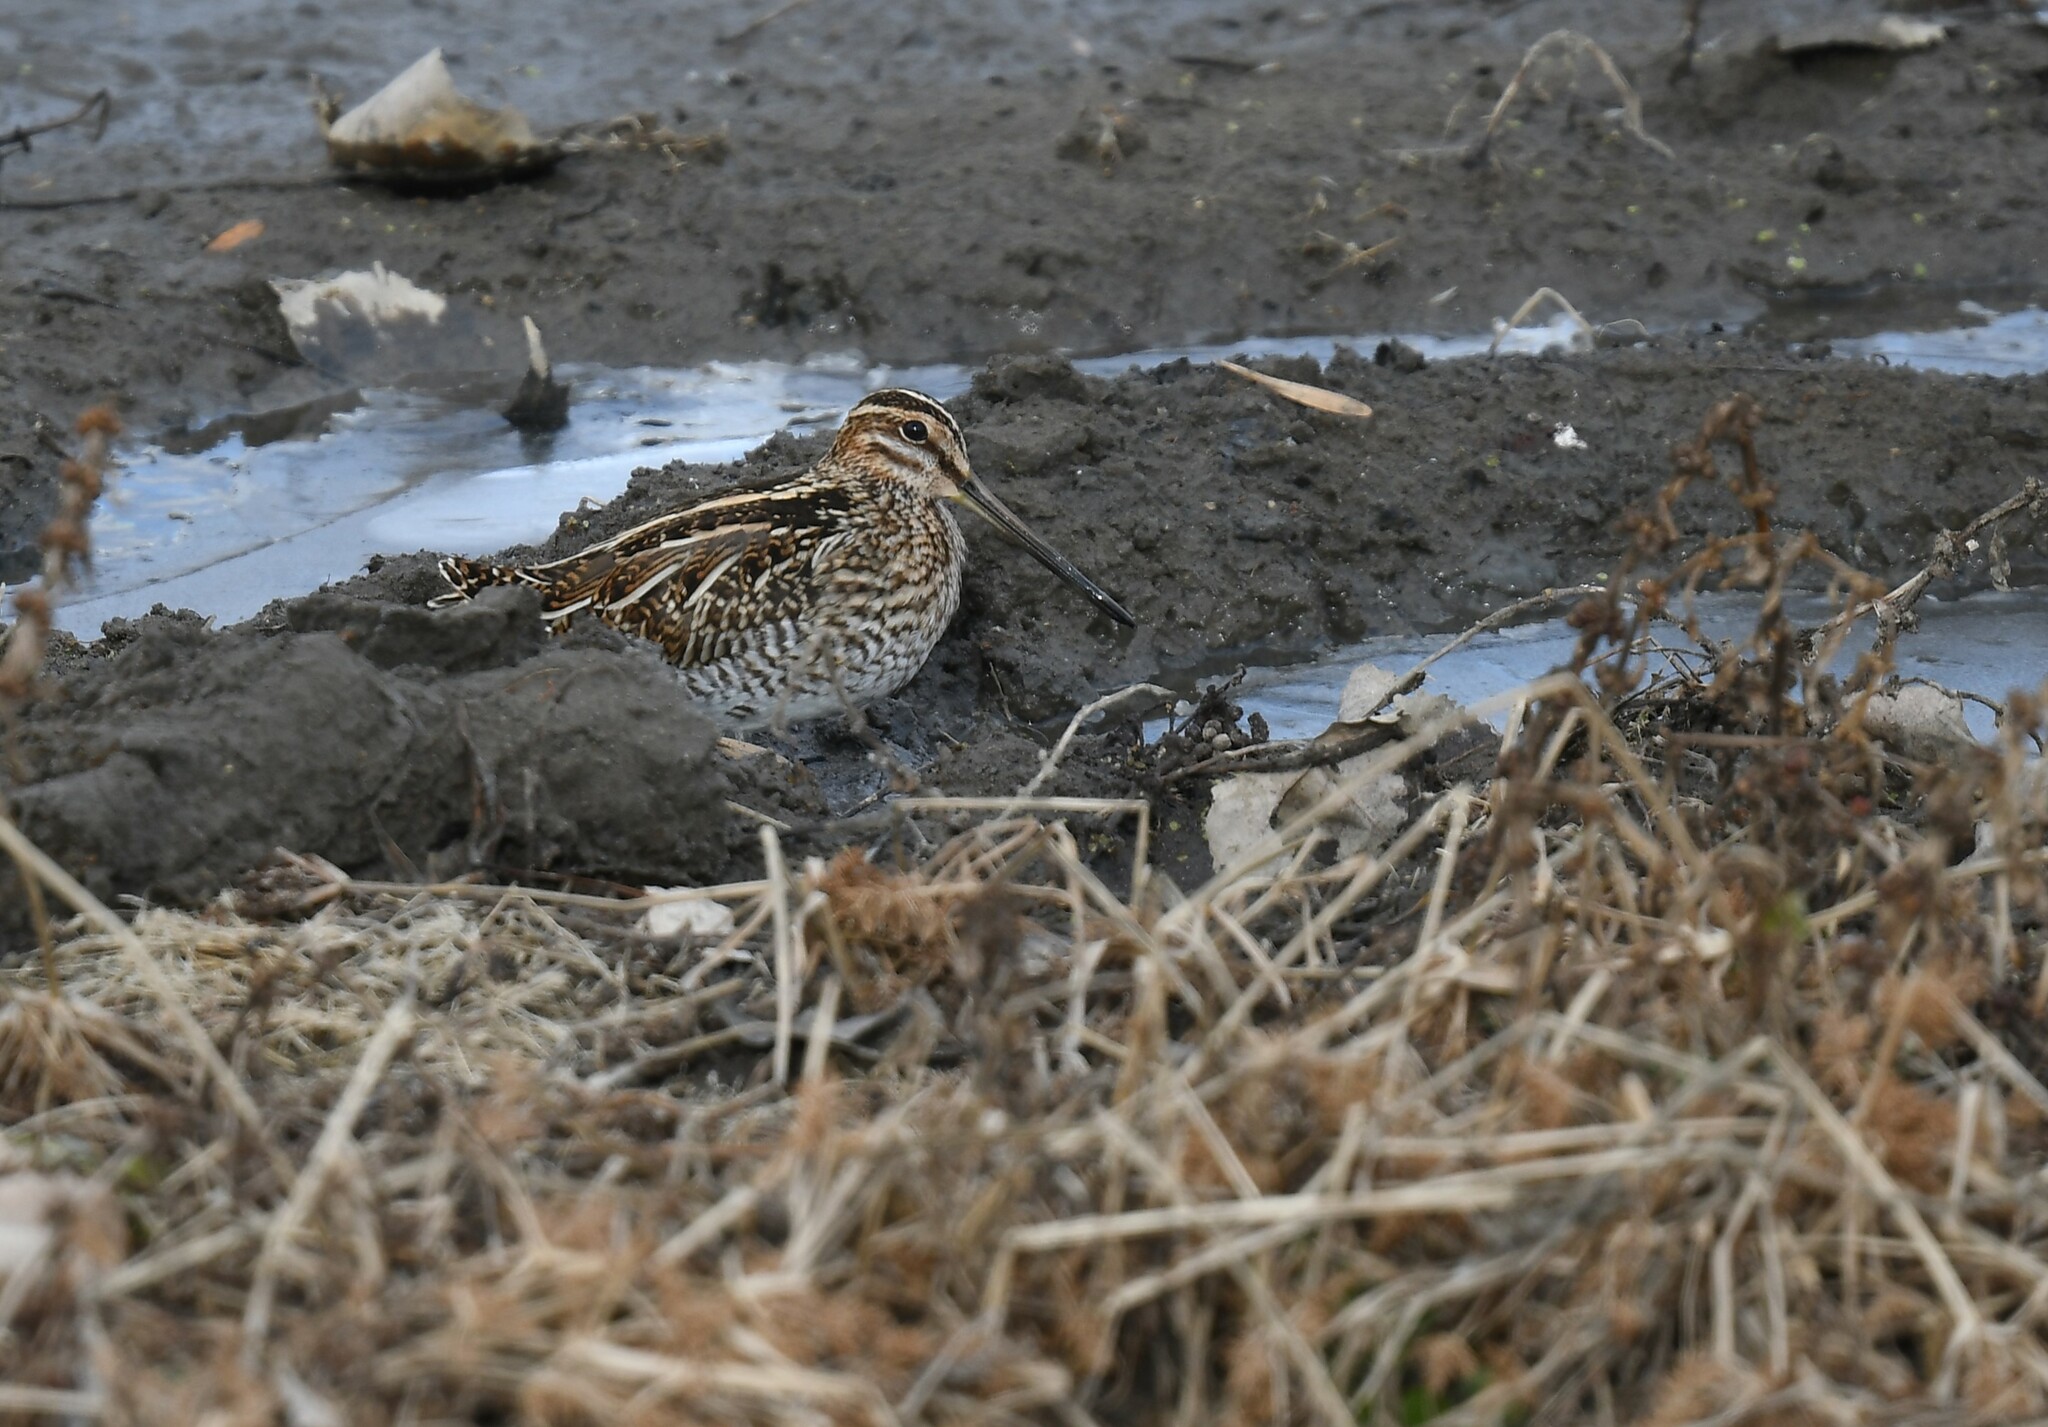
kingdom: Animalia
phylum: Chordata
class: Aves
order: Charadriiformes
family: Scolopacidae
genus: Gallinago
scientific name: Gallinago delicata
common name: Wilson's snipe
